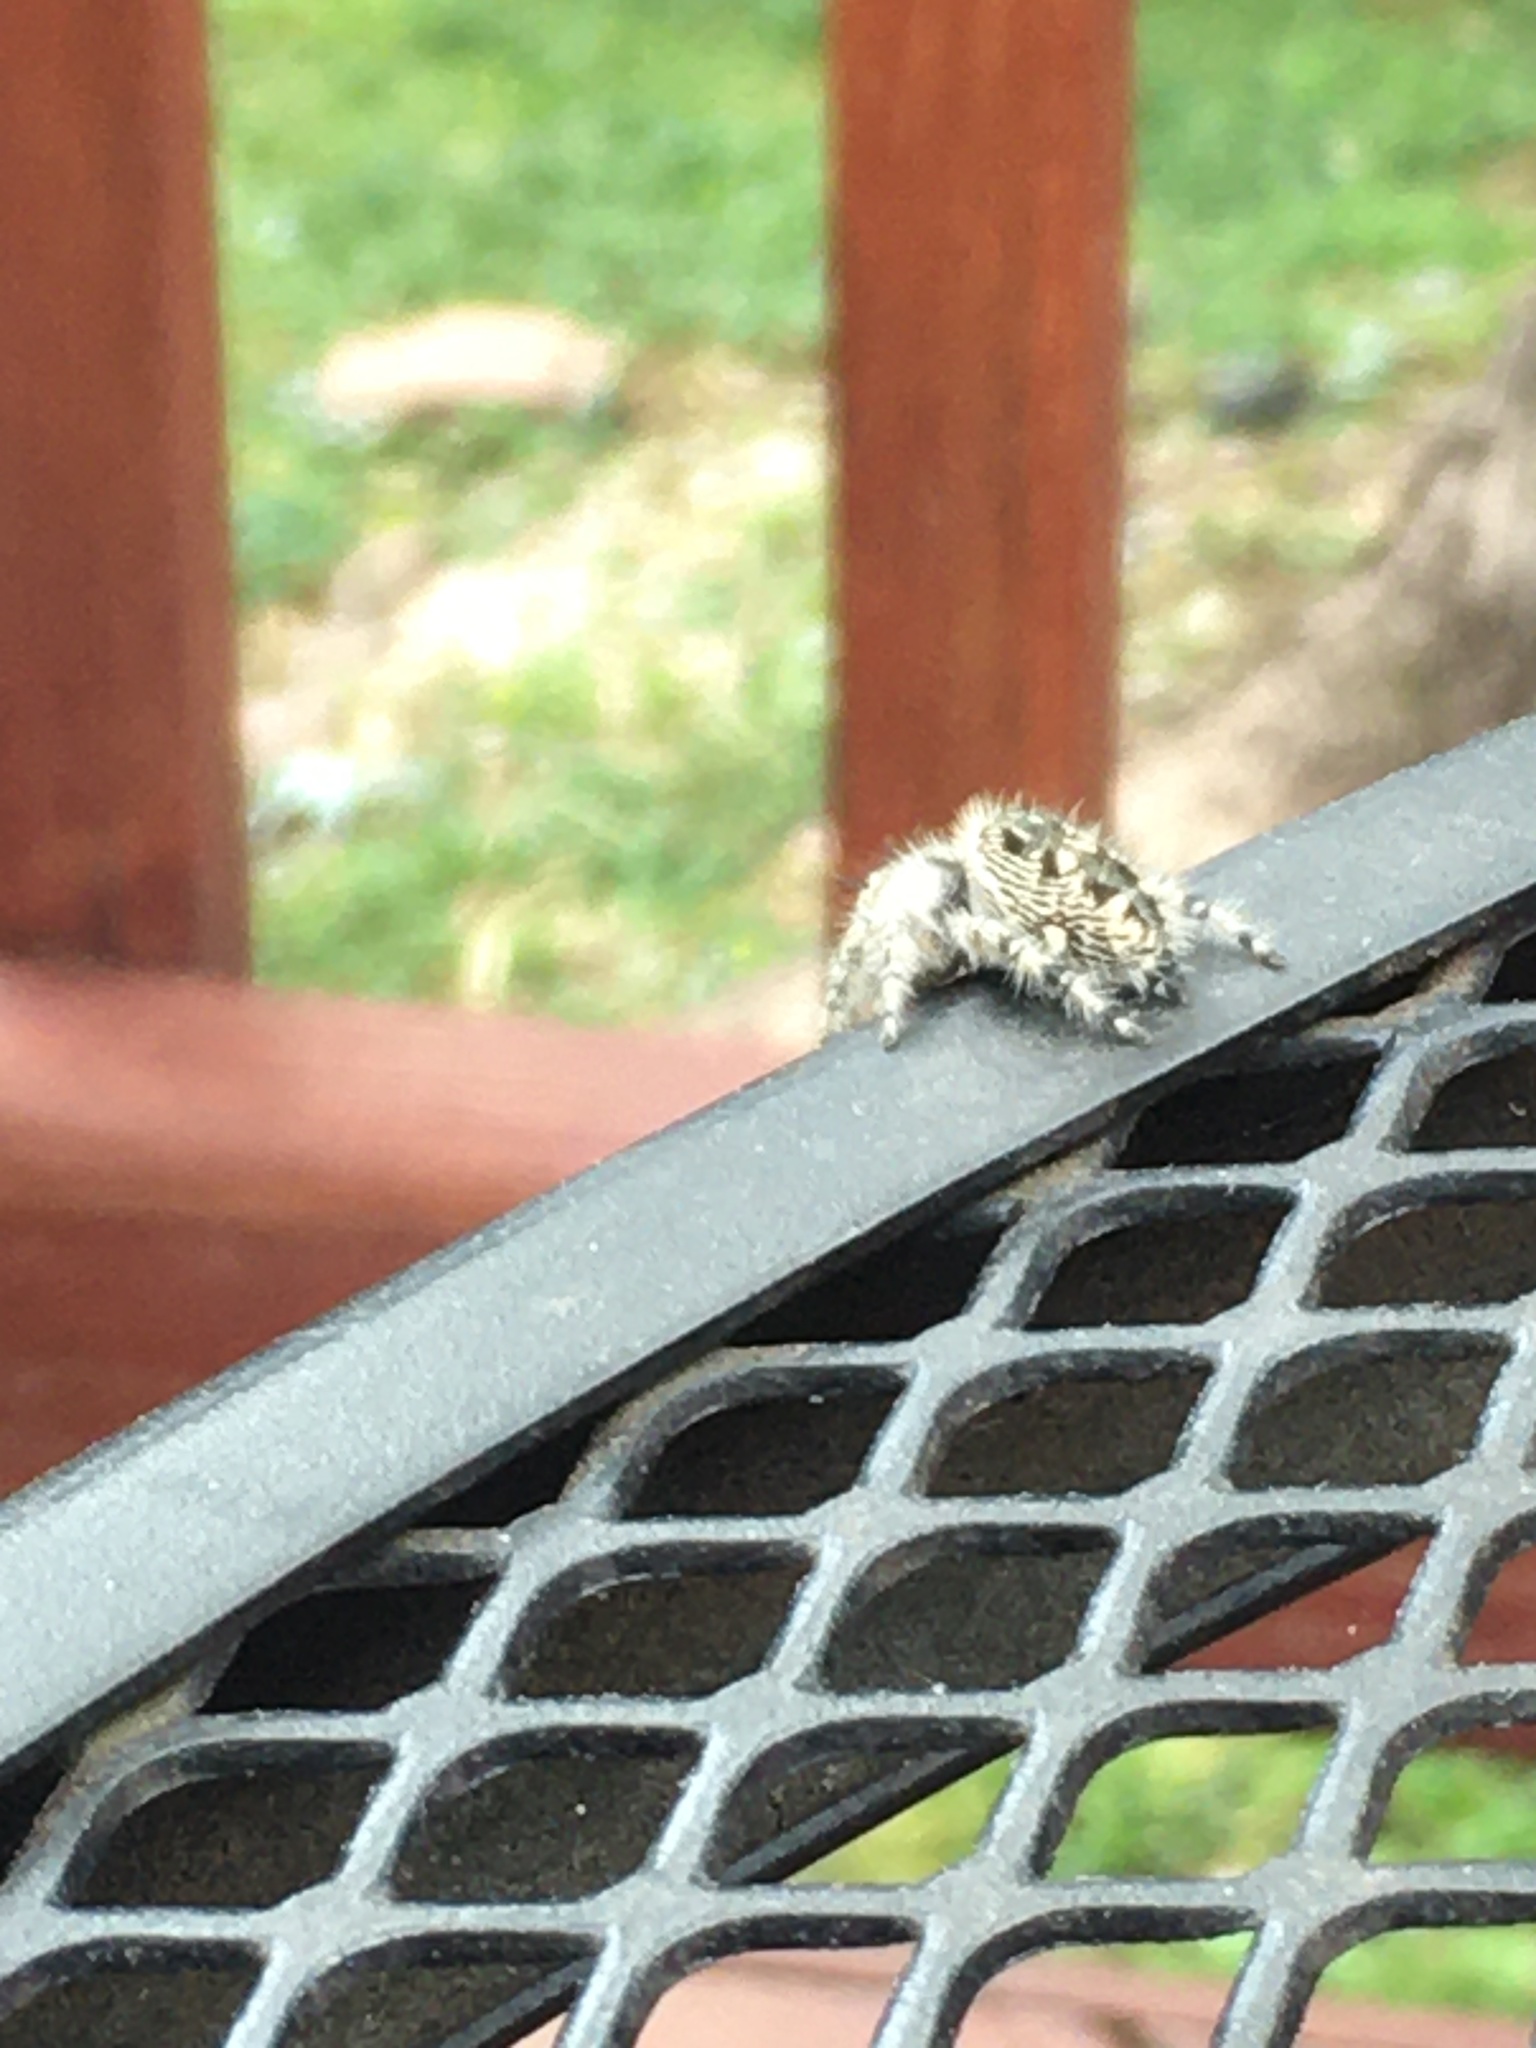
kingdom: Animalia
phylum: Arthropoda
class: Arachnida
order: Araneae
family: Salticidae
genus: Phidippus
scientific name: Phidippus otiosus
